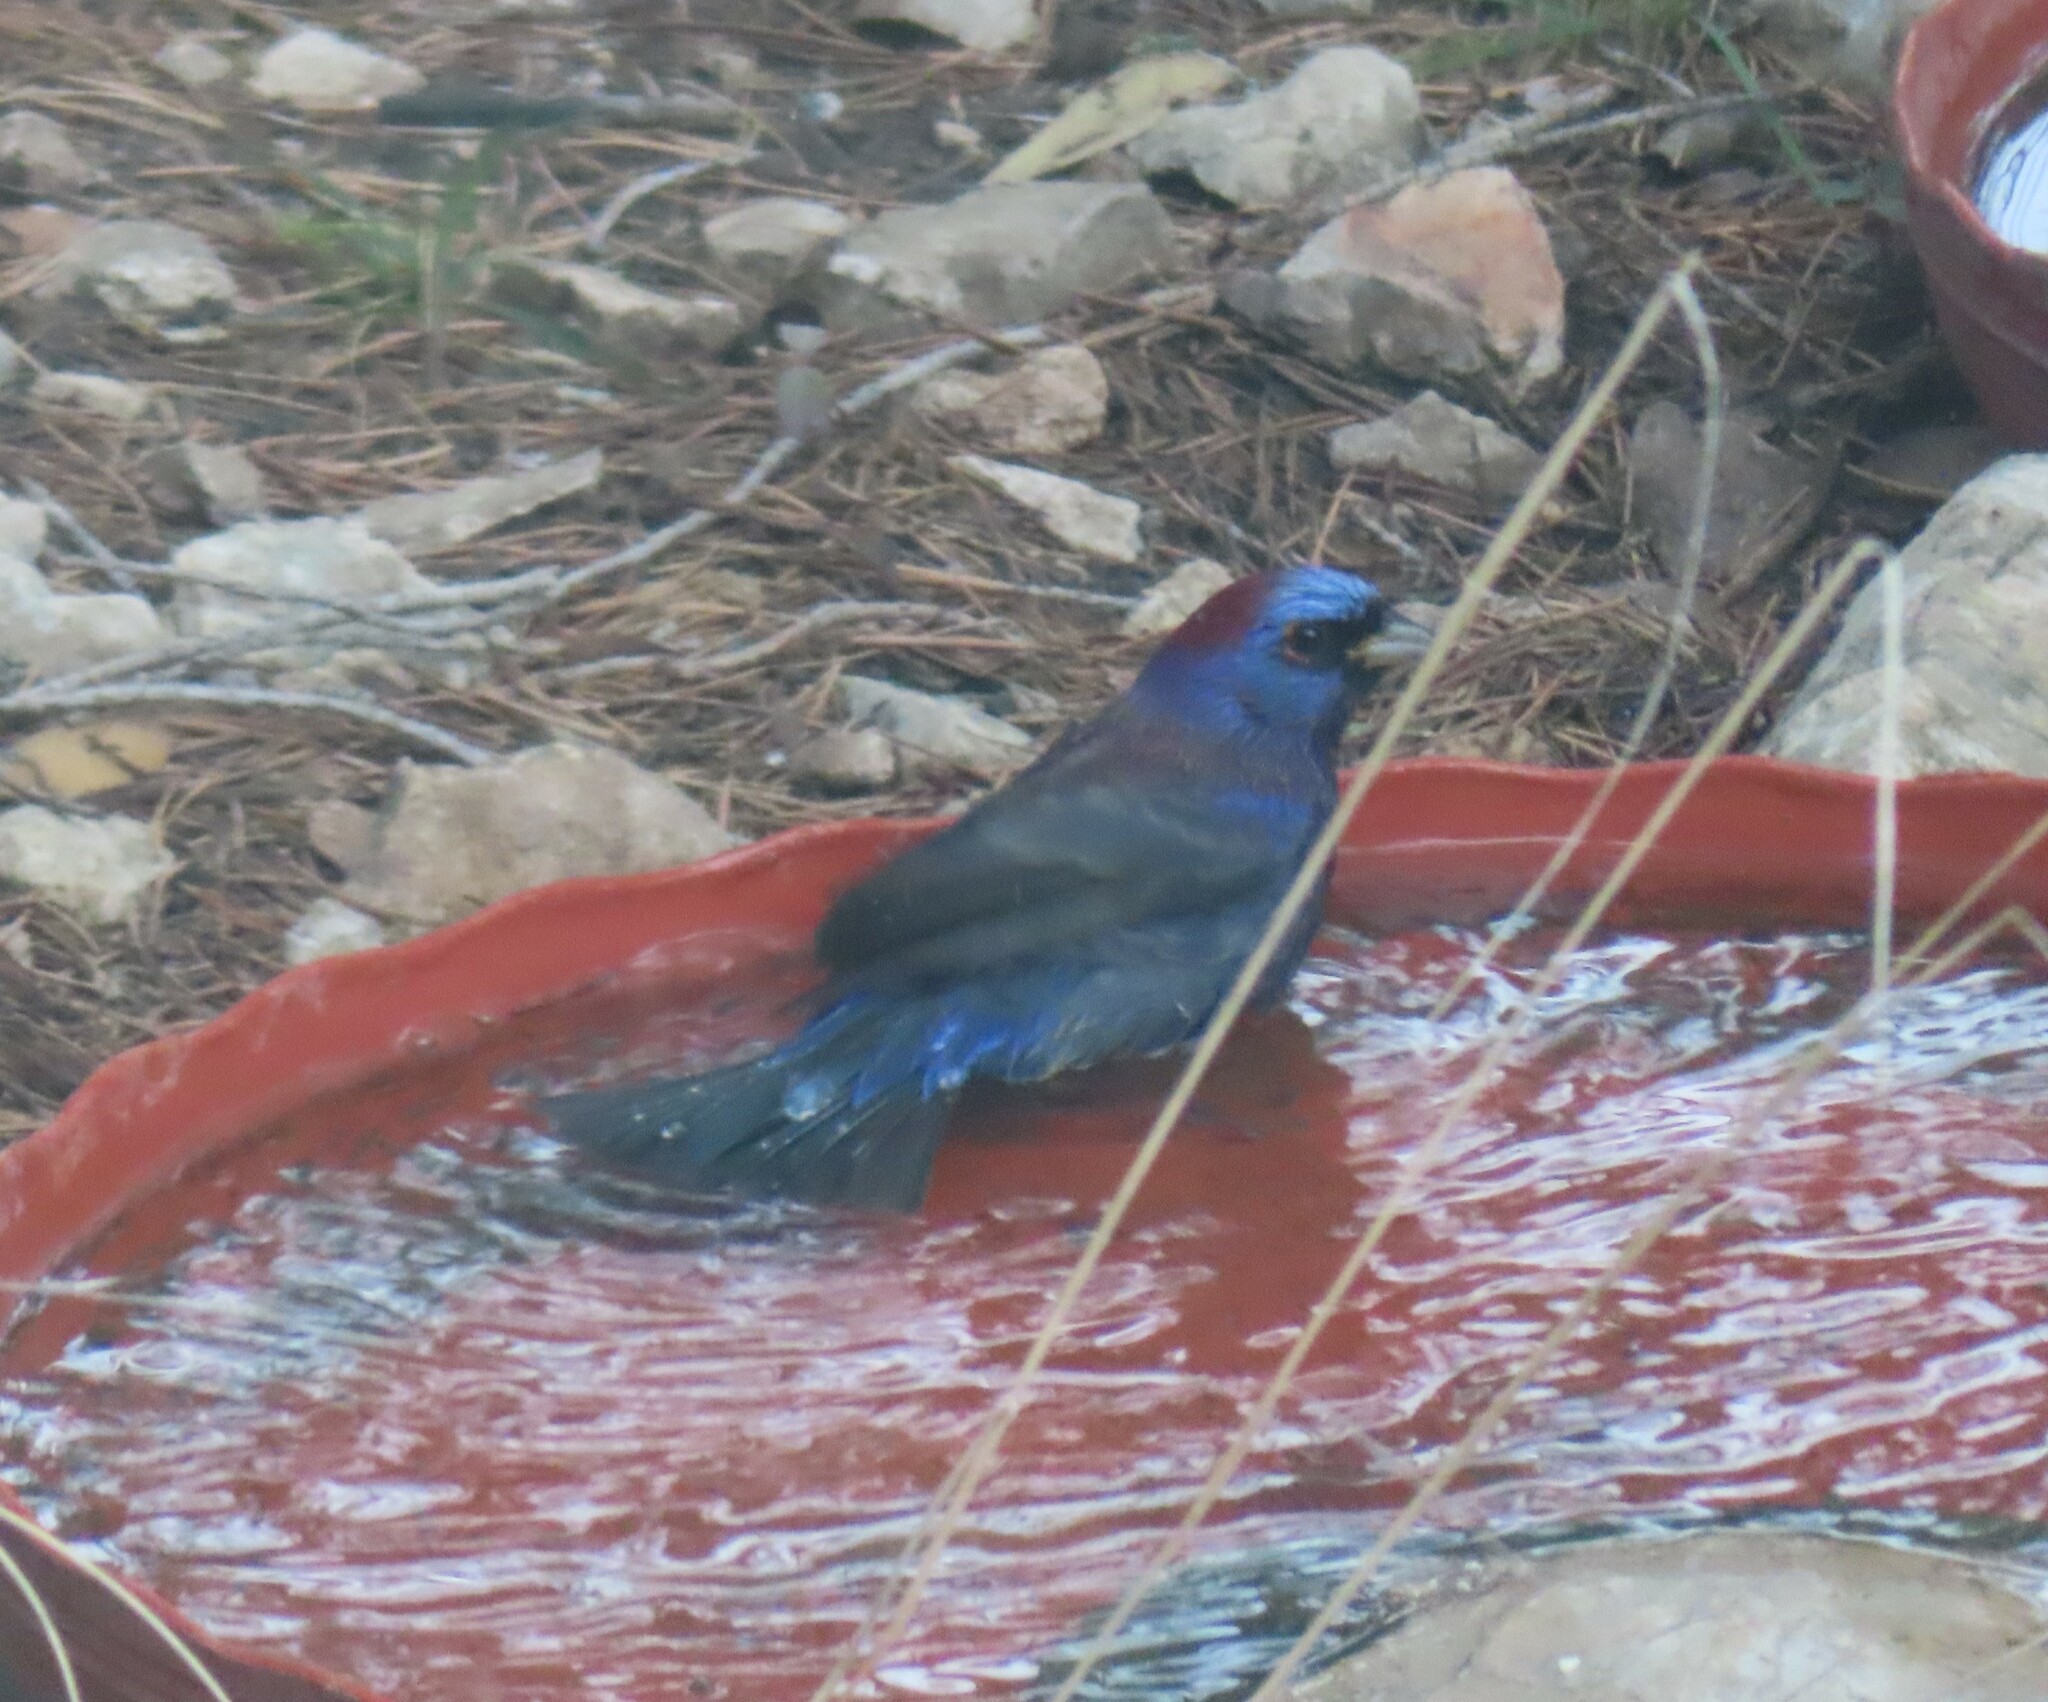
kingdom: Animalia
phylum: Chordata
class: Aves
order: Passeriformes
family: Cardinalidae
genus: Passerina
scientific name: Passerina versicolor
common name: Varied bunting
